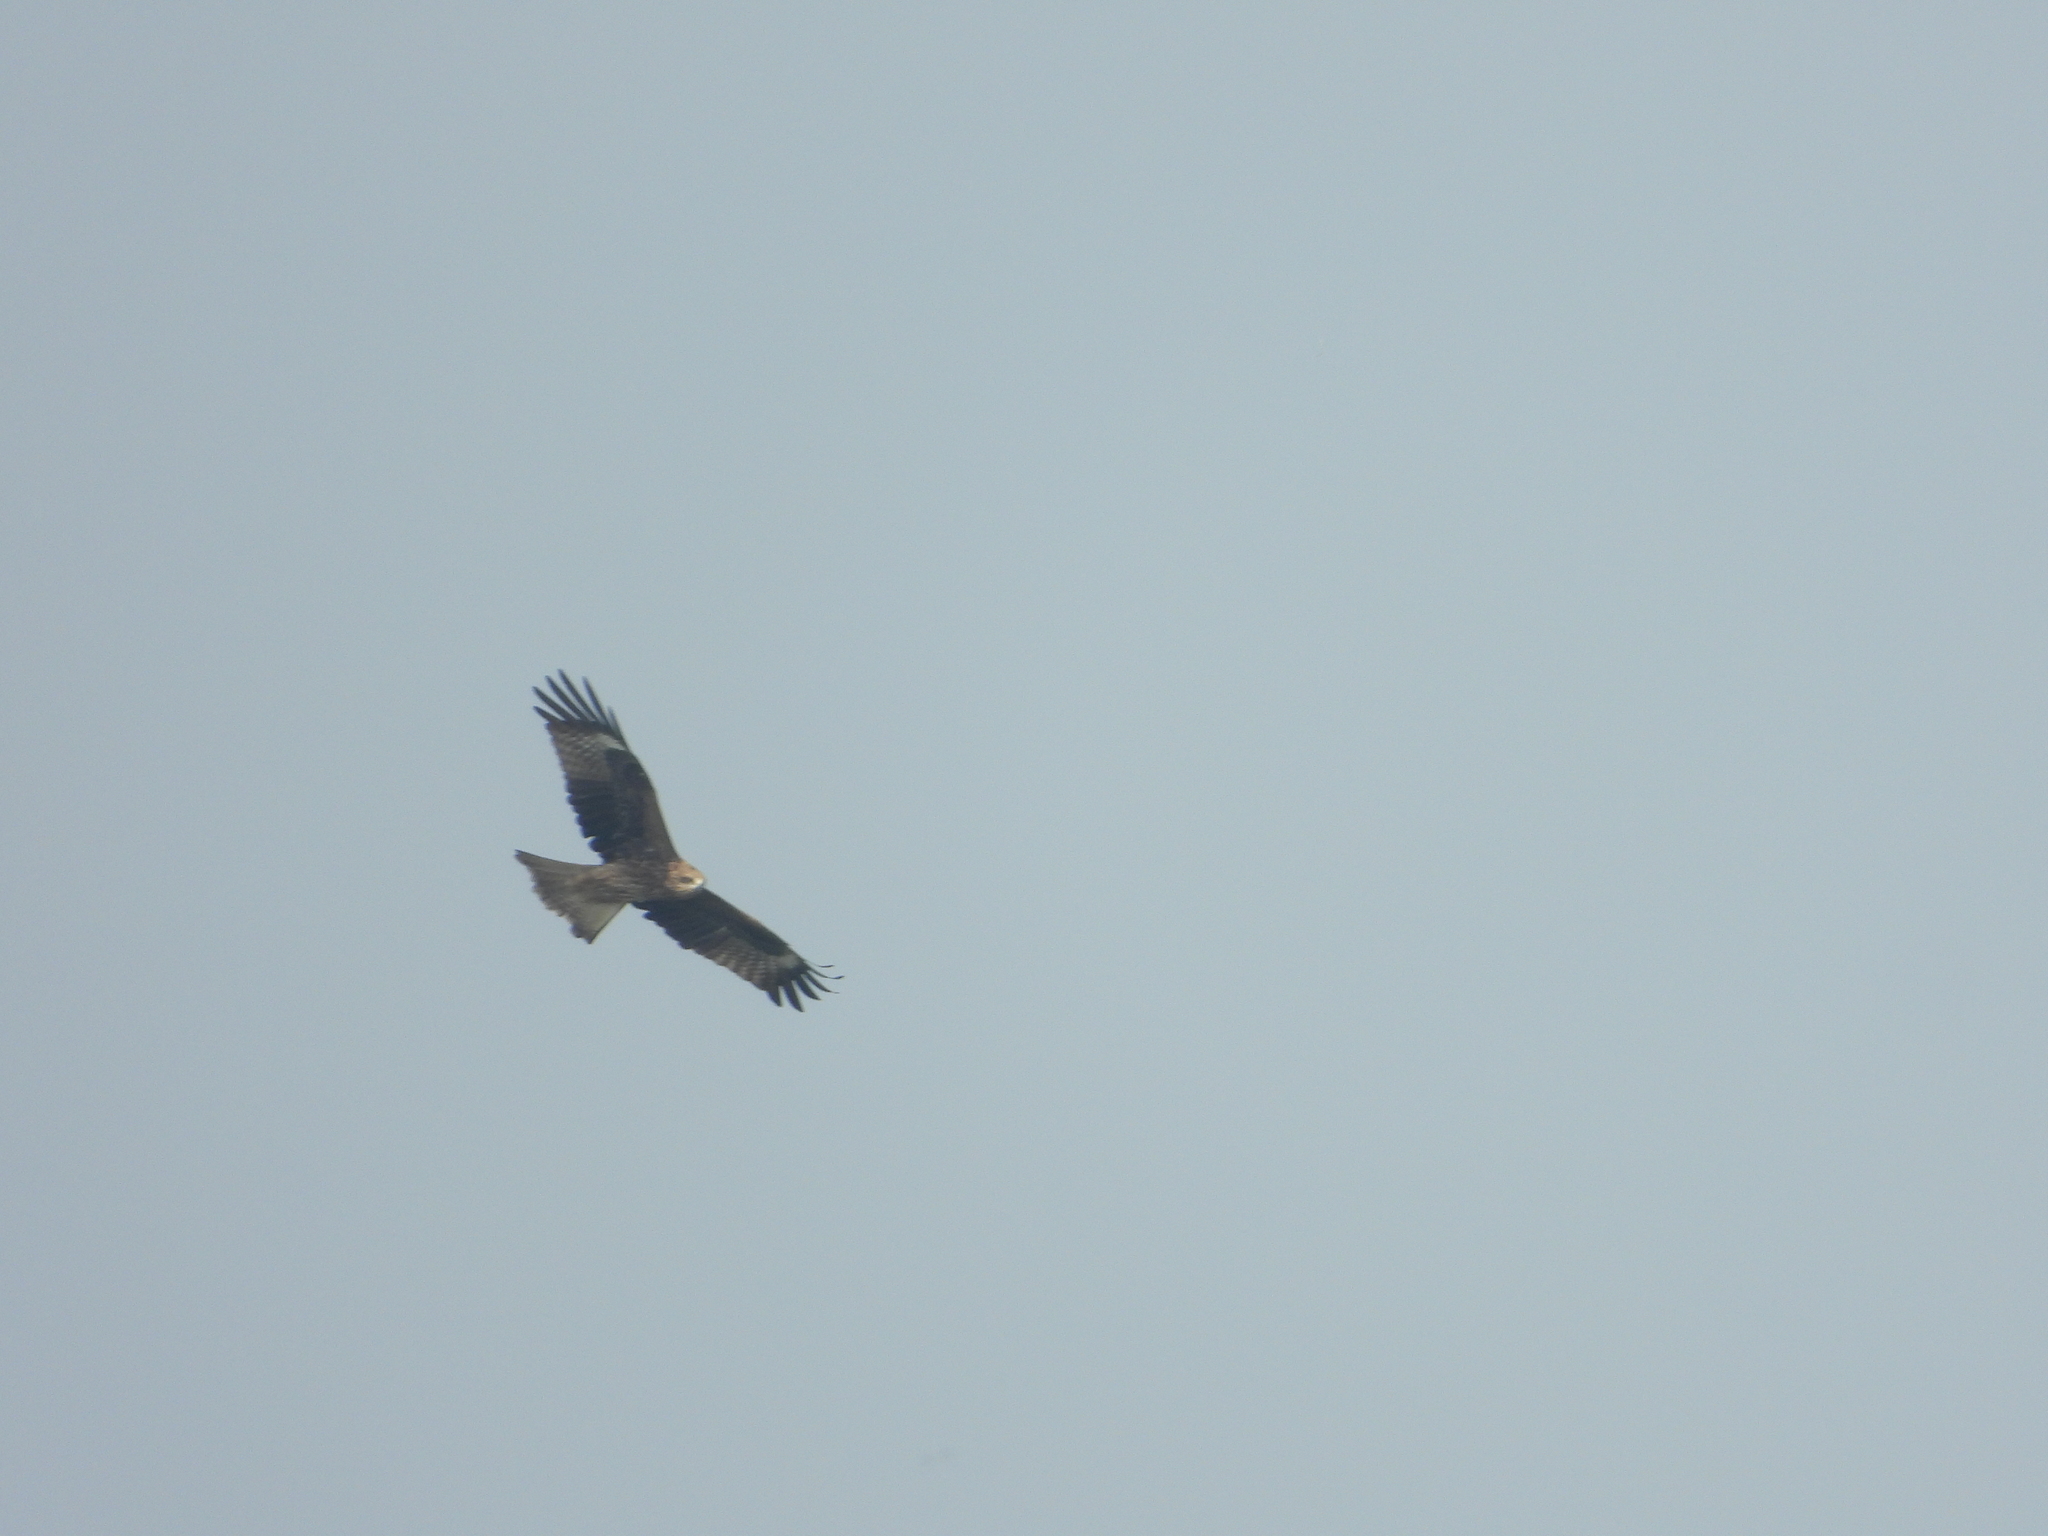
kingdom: Animalia
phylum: Chordata
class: Aves
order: Accipitriformes
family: Accipitridae
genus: Milvus
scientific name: Milvus migrans
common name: Black kite
